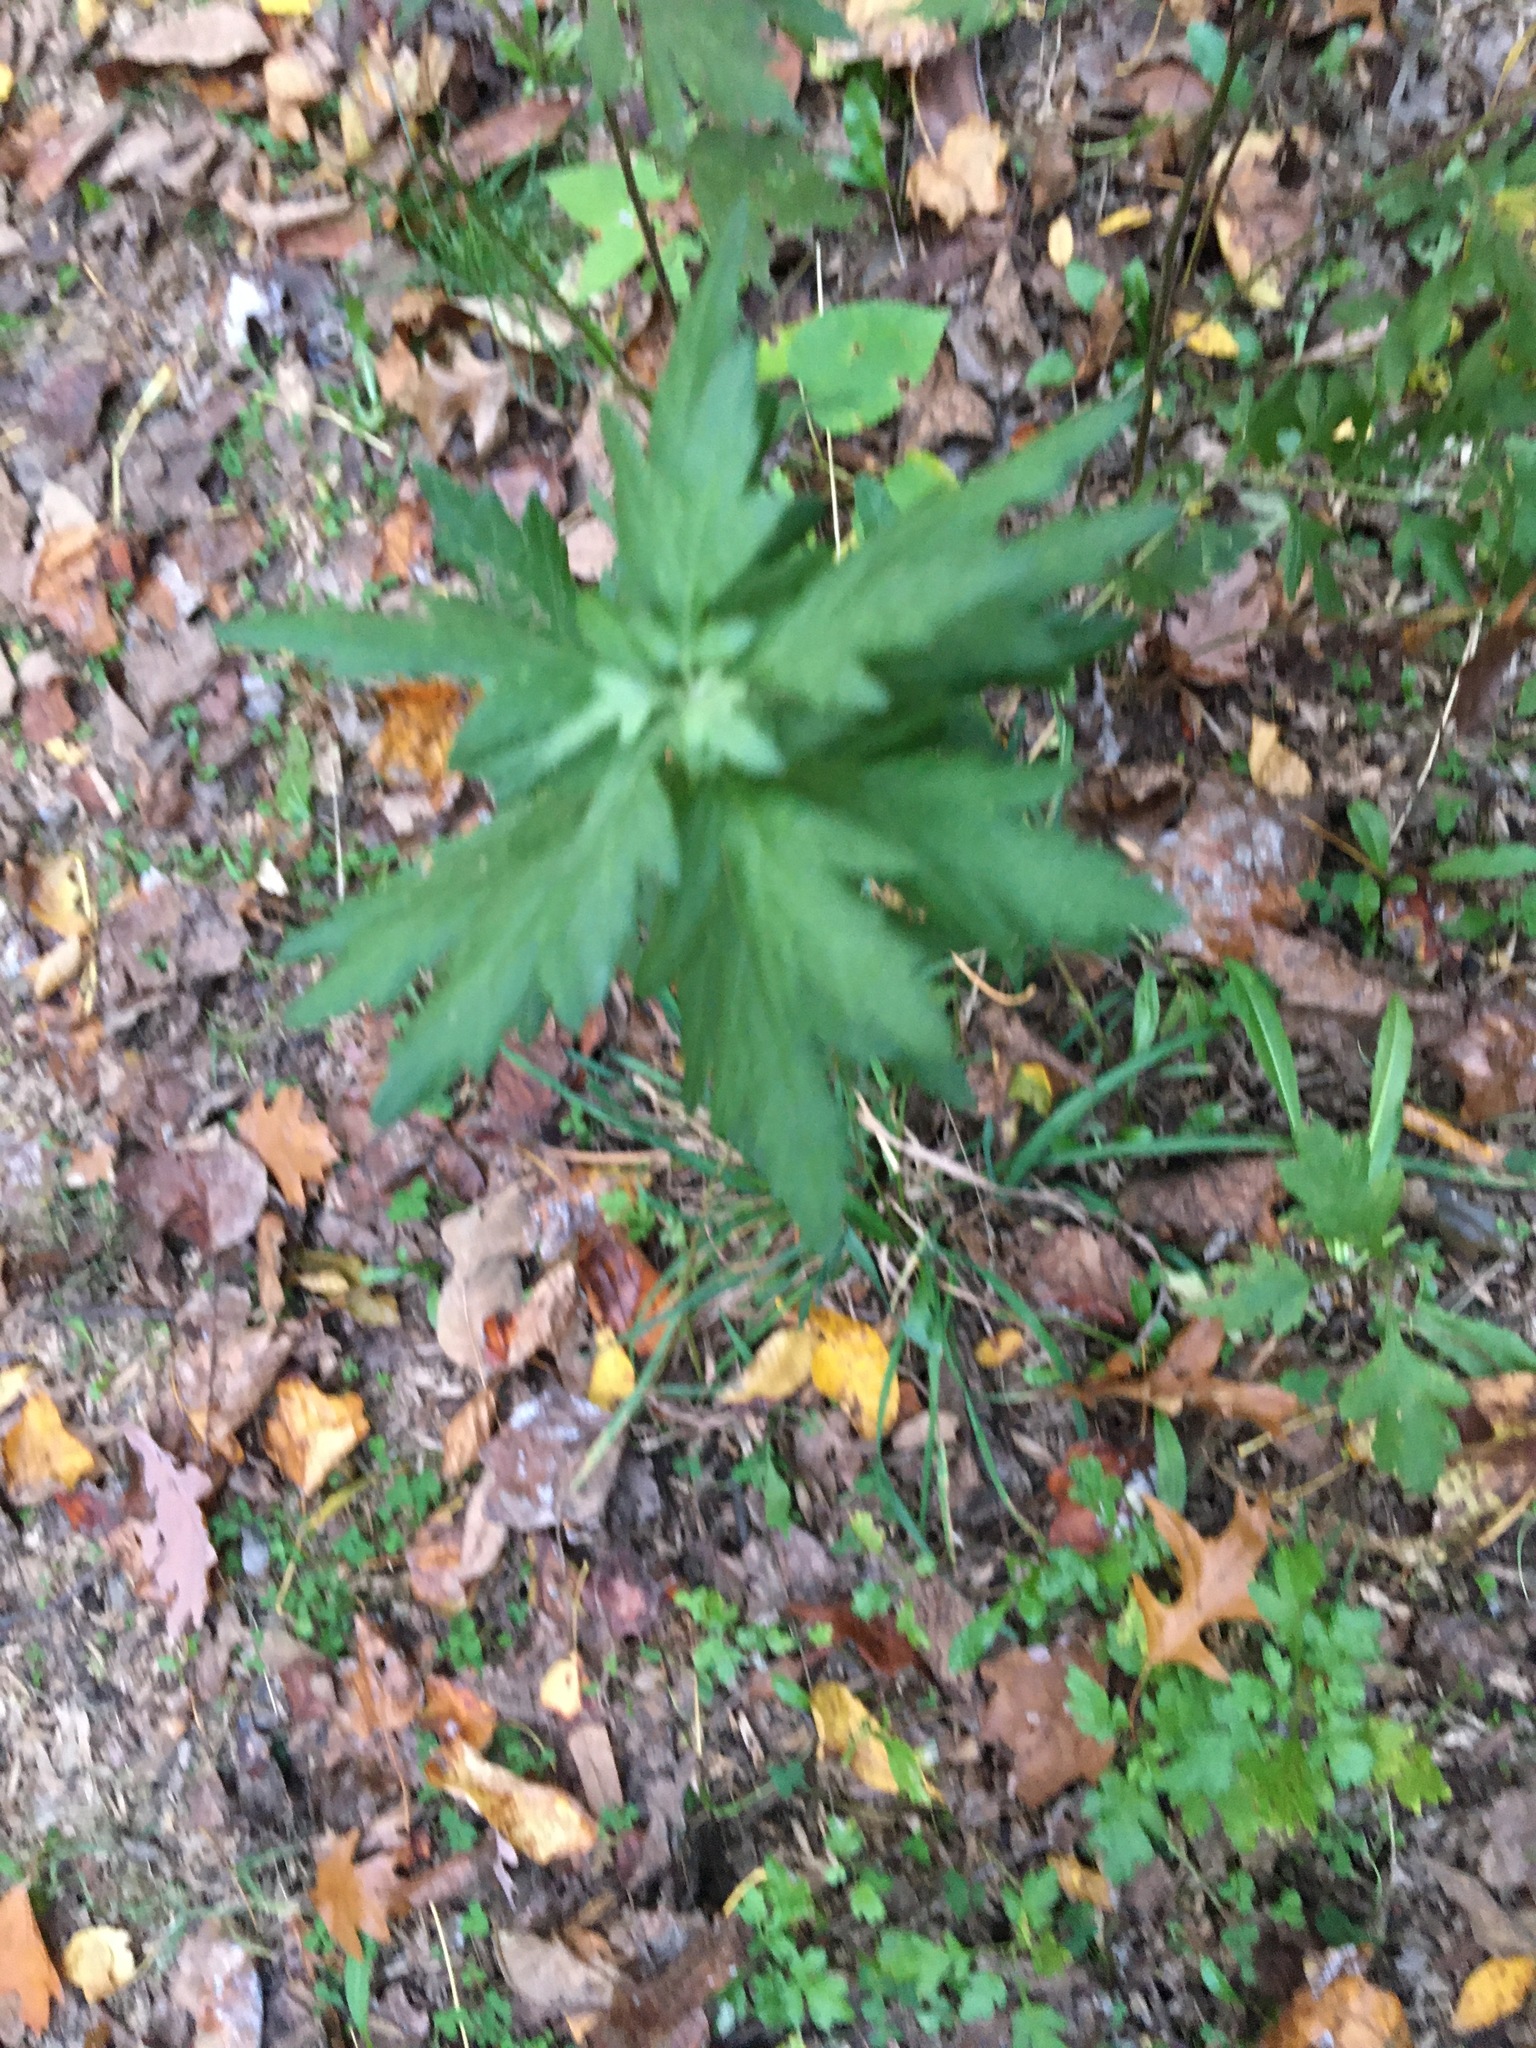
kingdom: Plantae
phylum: Tracheophyta
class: Magnoliopsida
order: Asterales
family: Asteraceae
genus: Artemisia
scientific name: Artemisia vulgaris
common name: Mugwort
